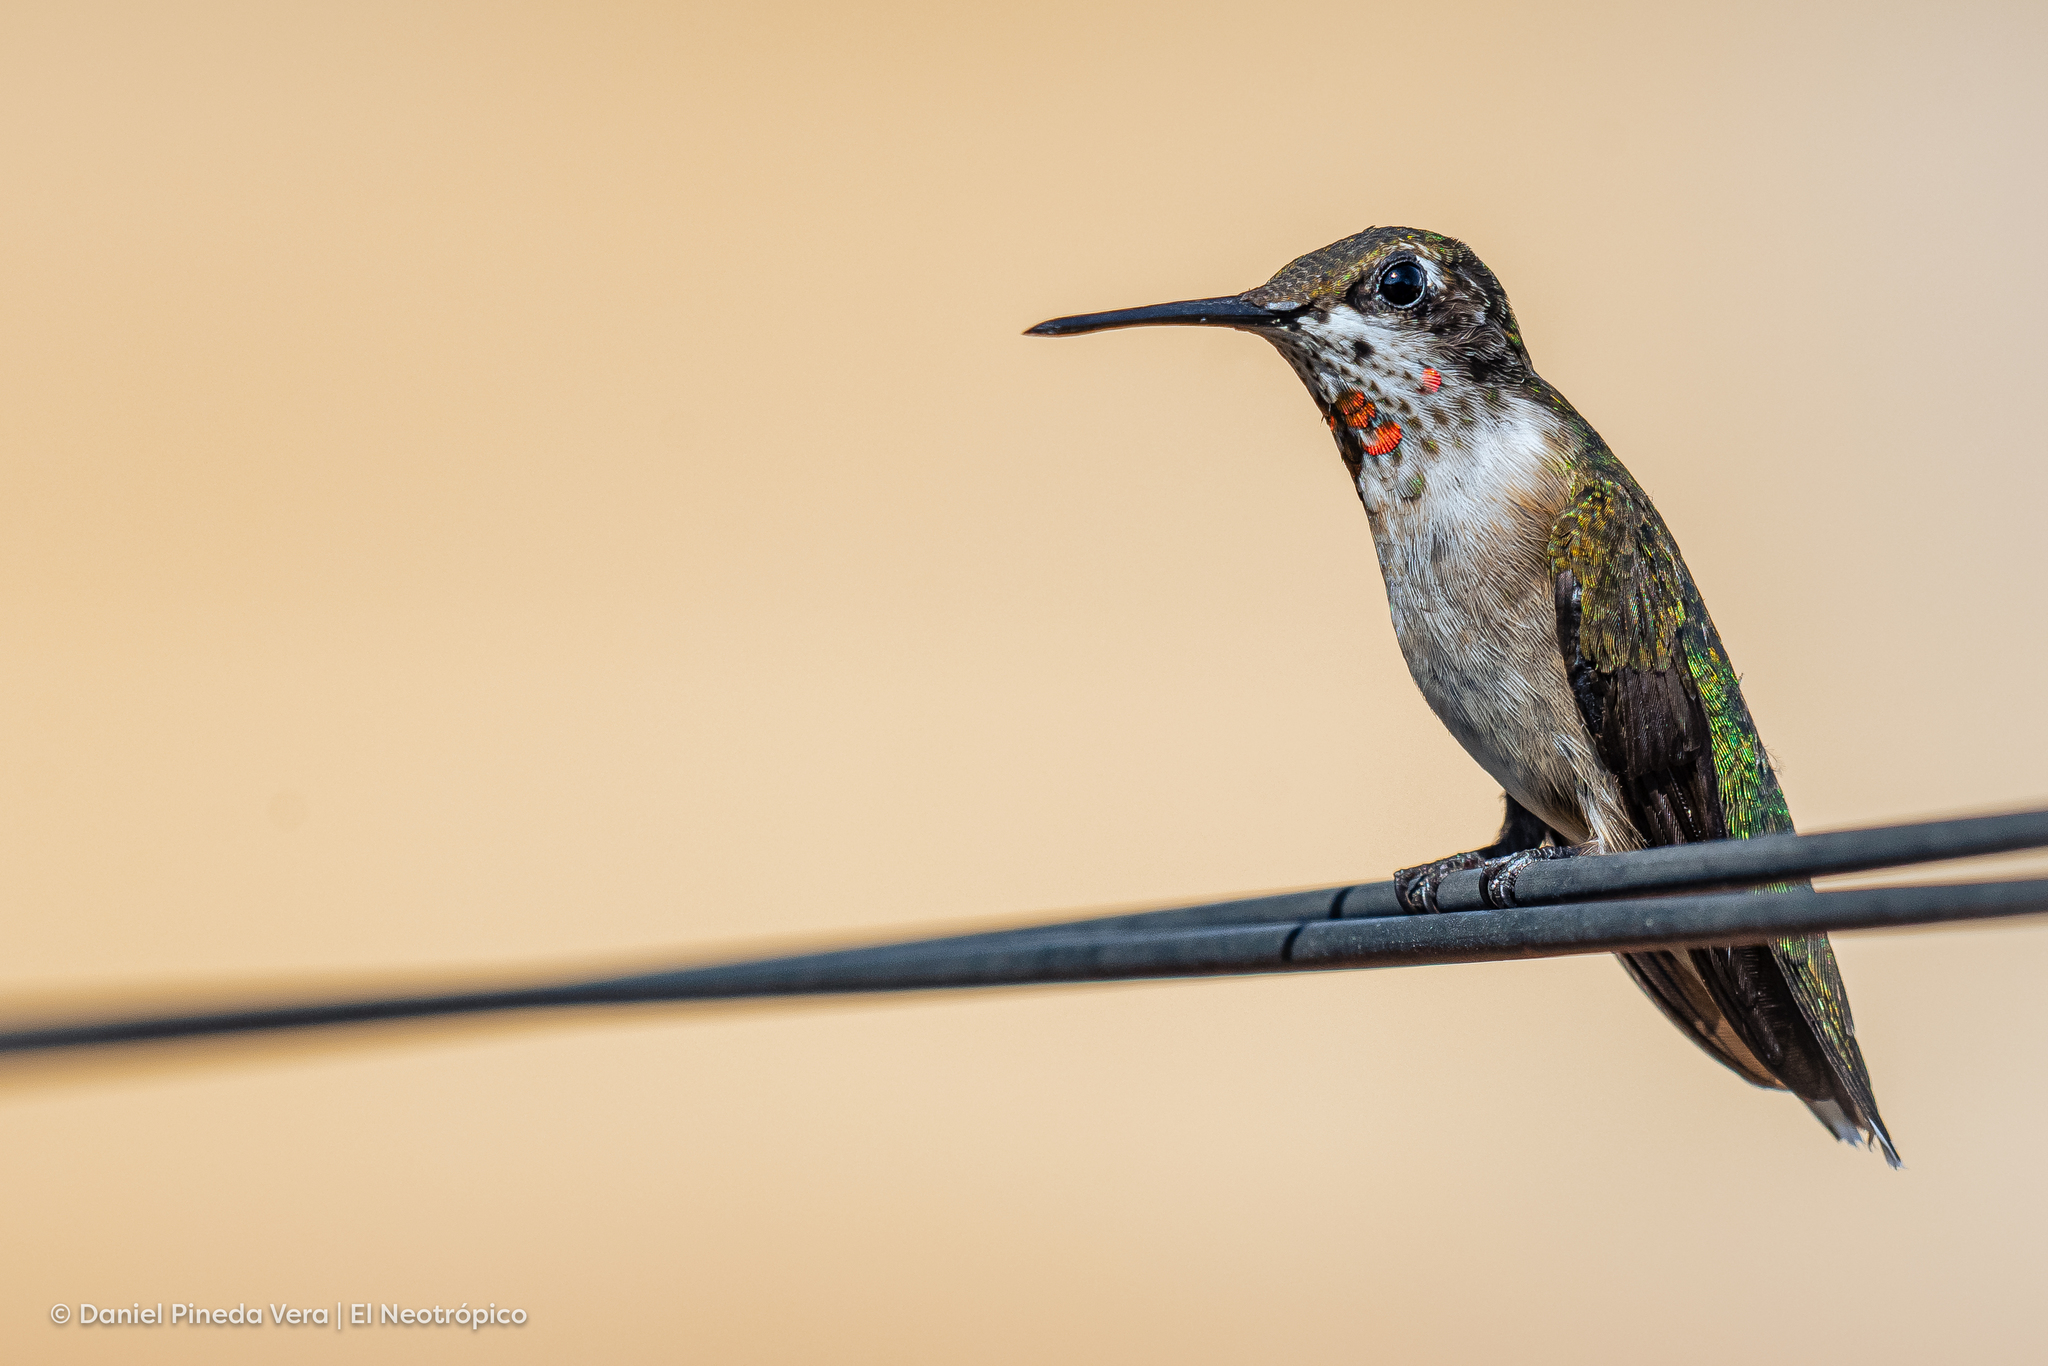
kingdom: Animalia
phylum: Chordata
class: Aves
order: Apodiformes
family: Trochilidae
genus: Archilochus
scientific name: Archilochus colubris
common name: Ruby-throated hummingbird
